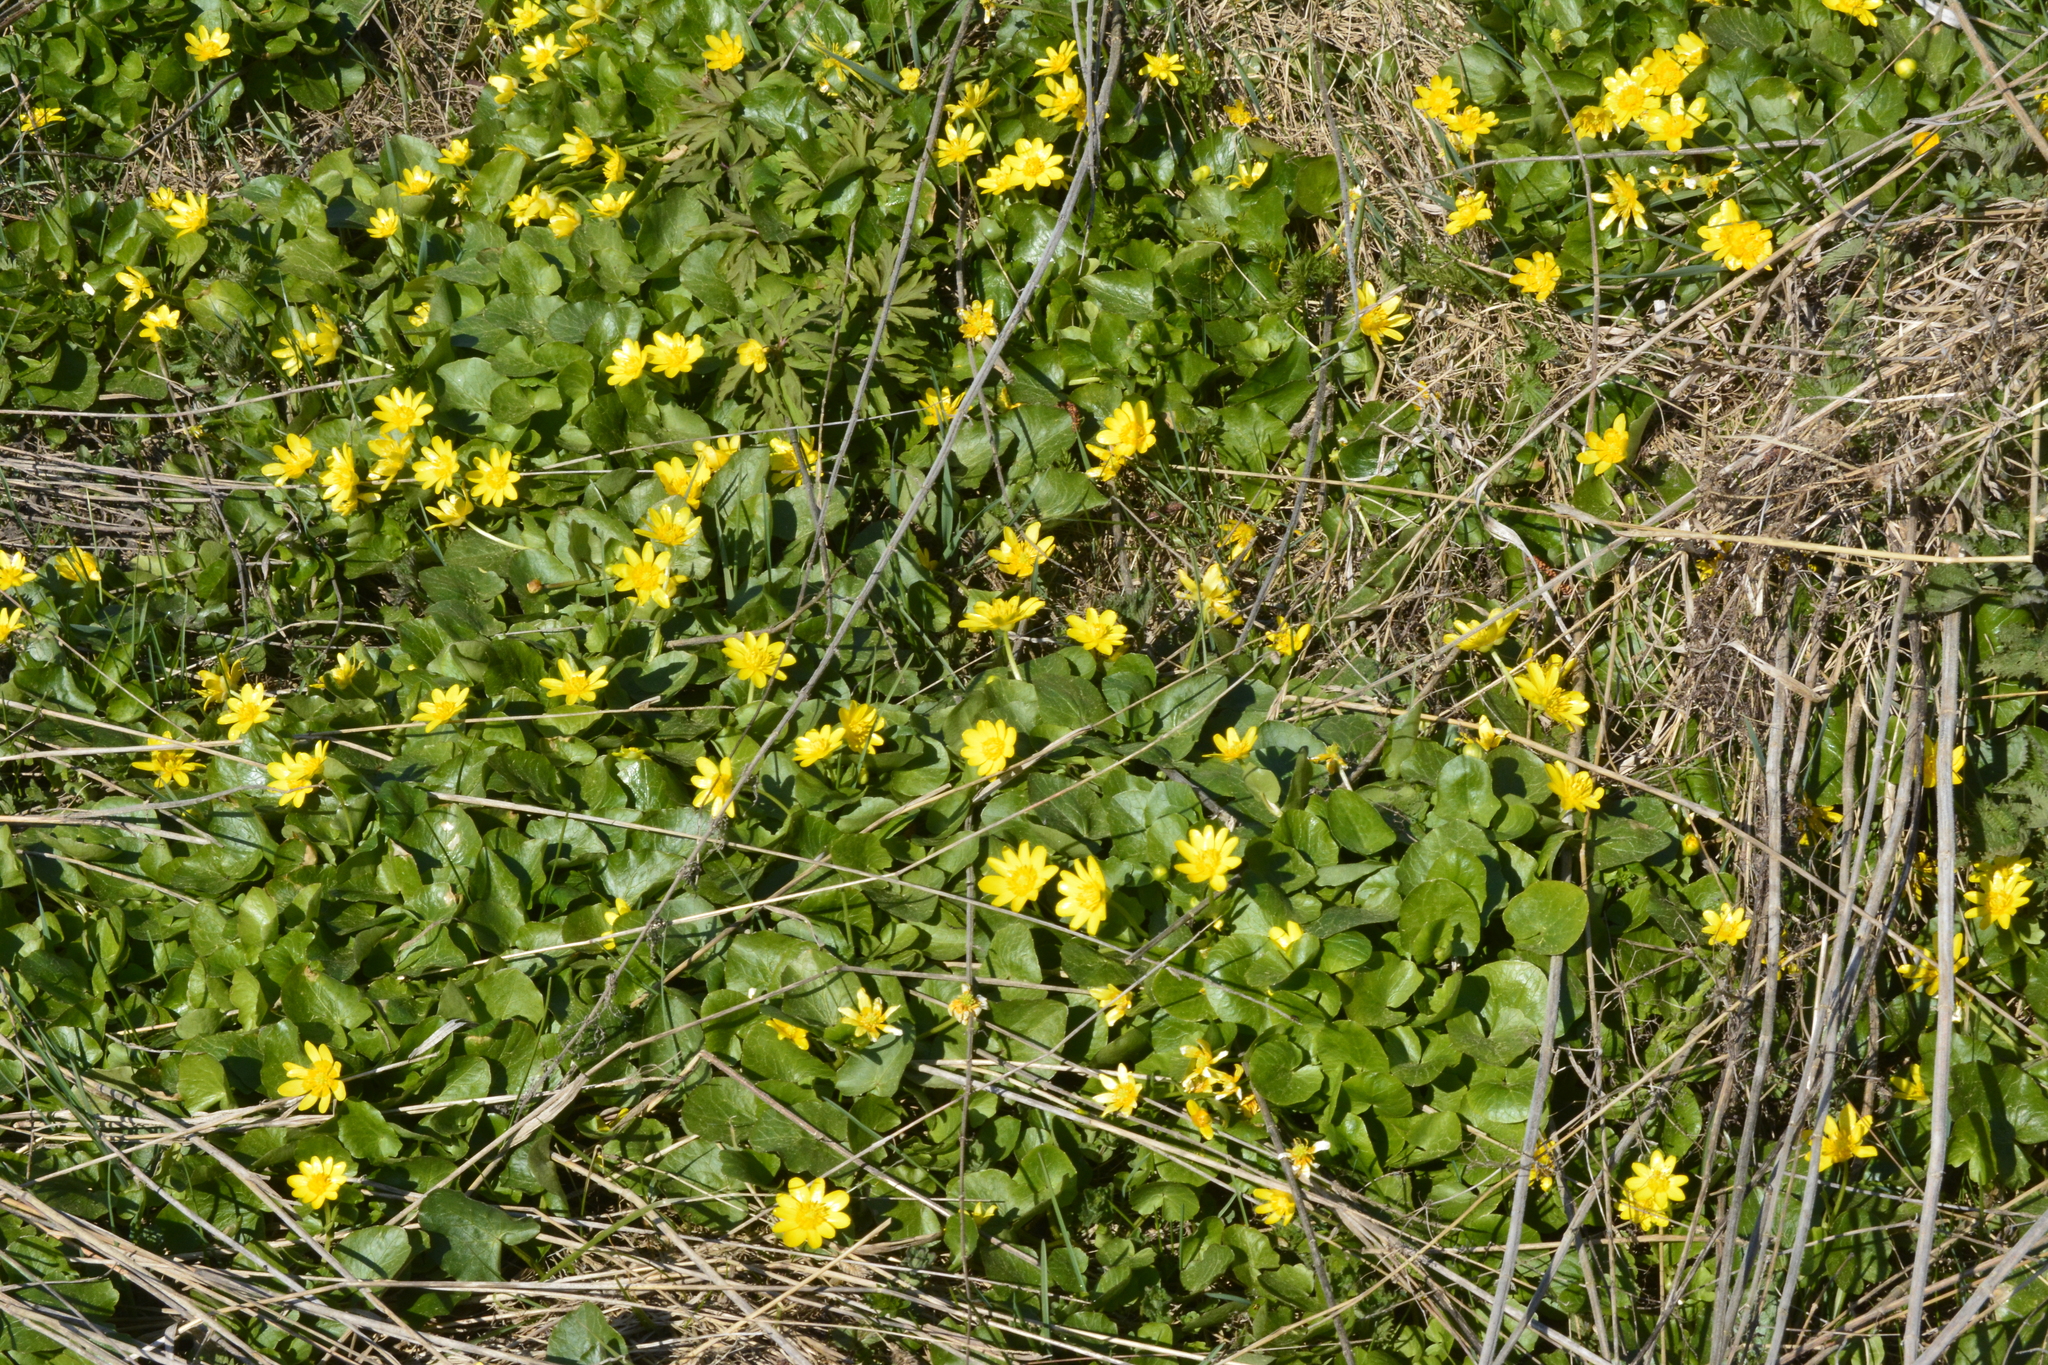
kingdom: Plantae
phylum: Tracheophyta
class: Magnoliopsida
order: Ranunculales
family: Ranunculaceae
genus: Ficaria
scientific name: Ficaria verna
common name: Lesser celandine
